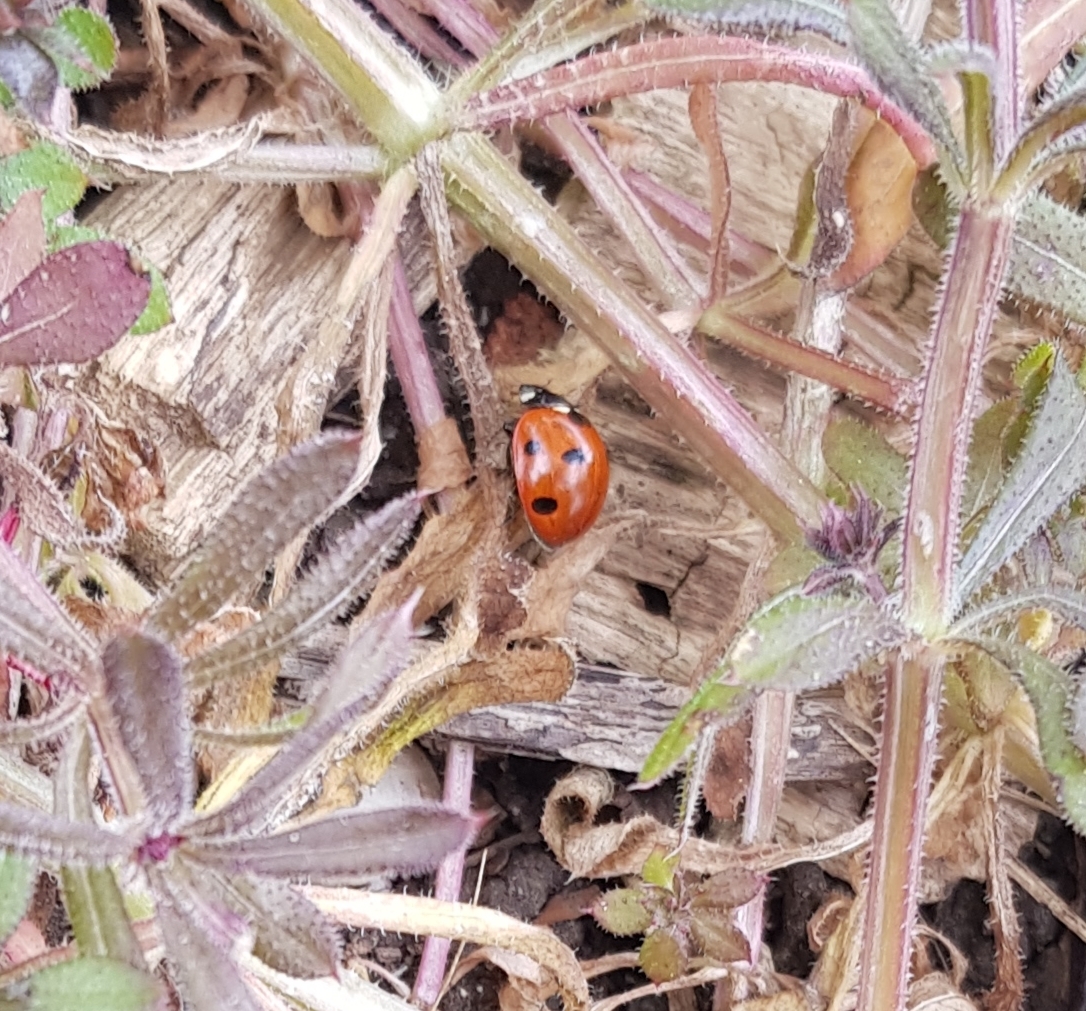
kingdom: Animalia
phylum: Arthropoda
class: Insecta
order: Coleoptera
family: Coccinellidae
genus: Coccinella
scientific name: Coccinella septempunctata
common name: Sevenspotted lady beetle
